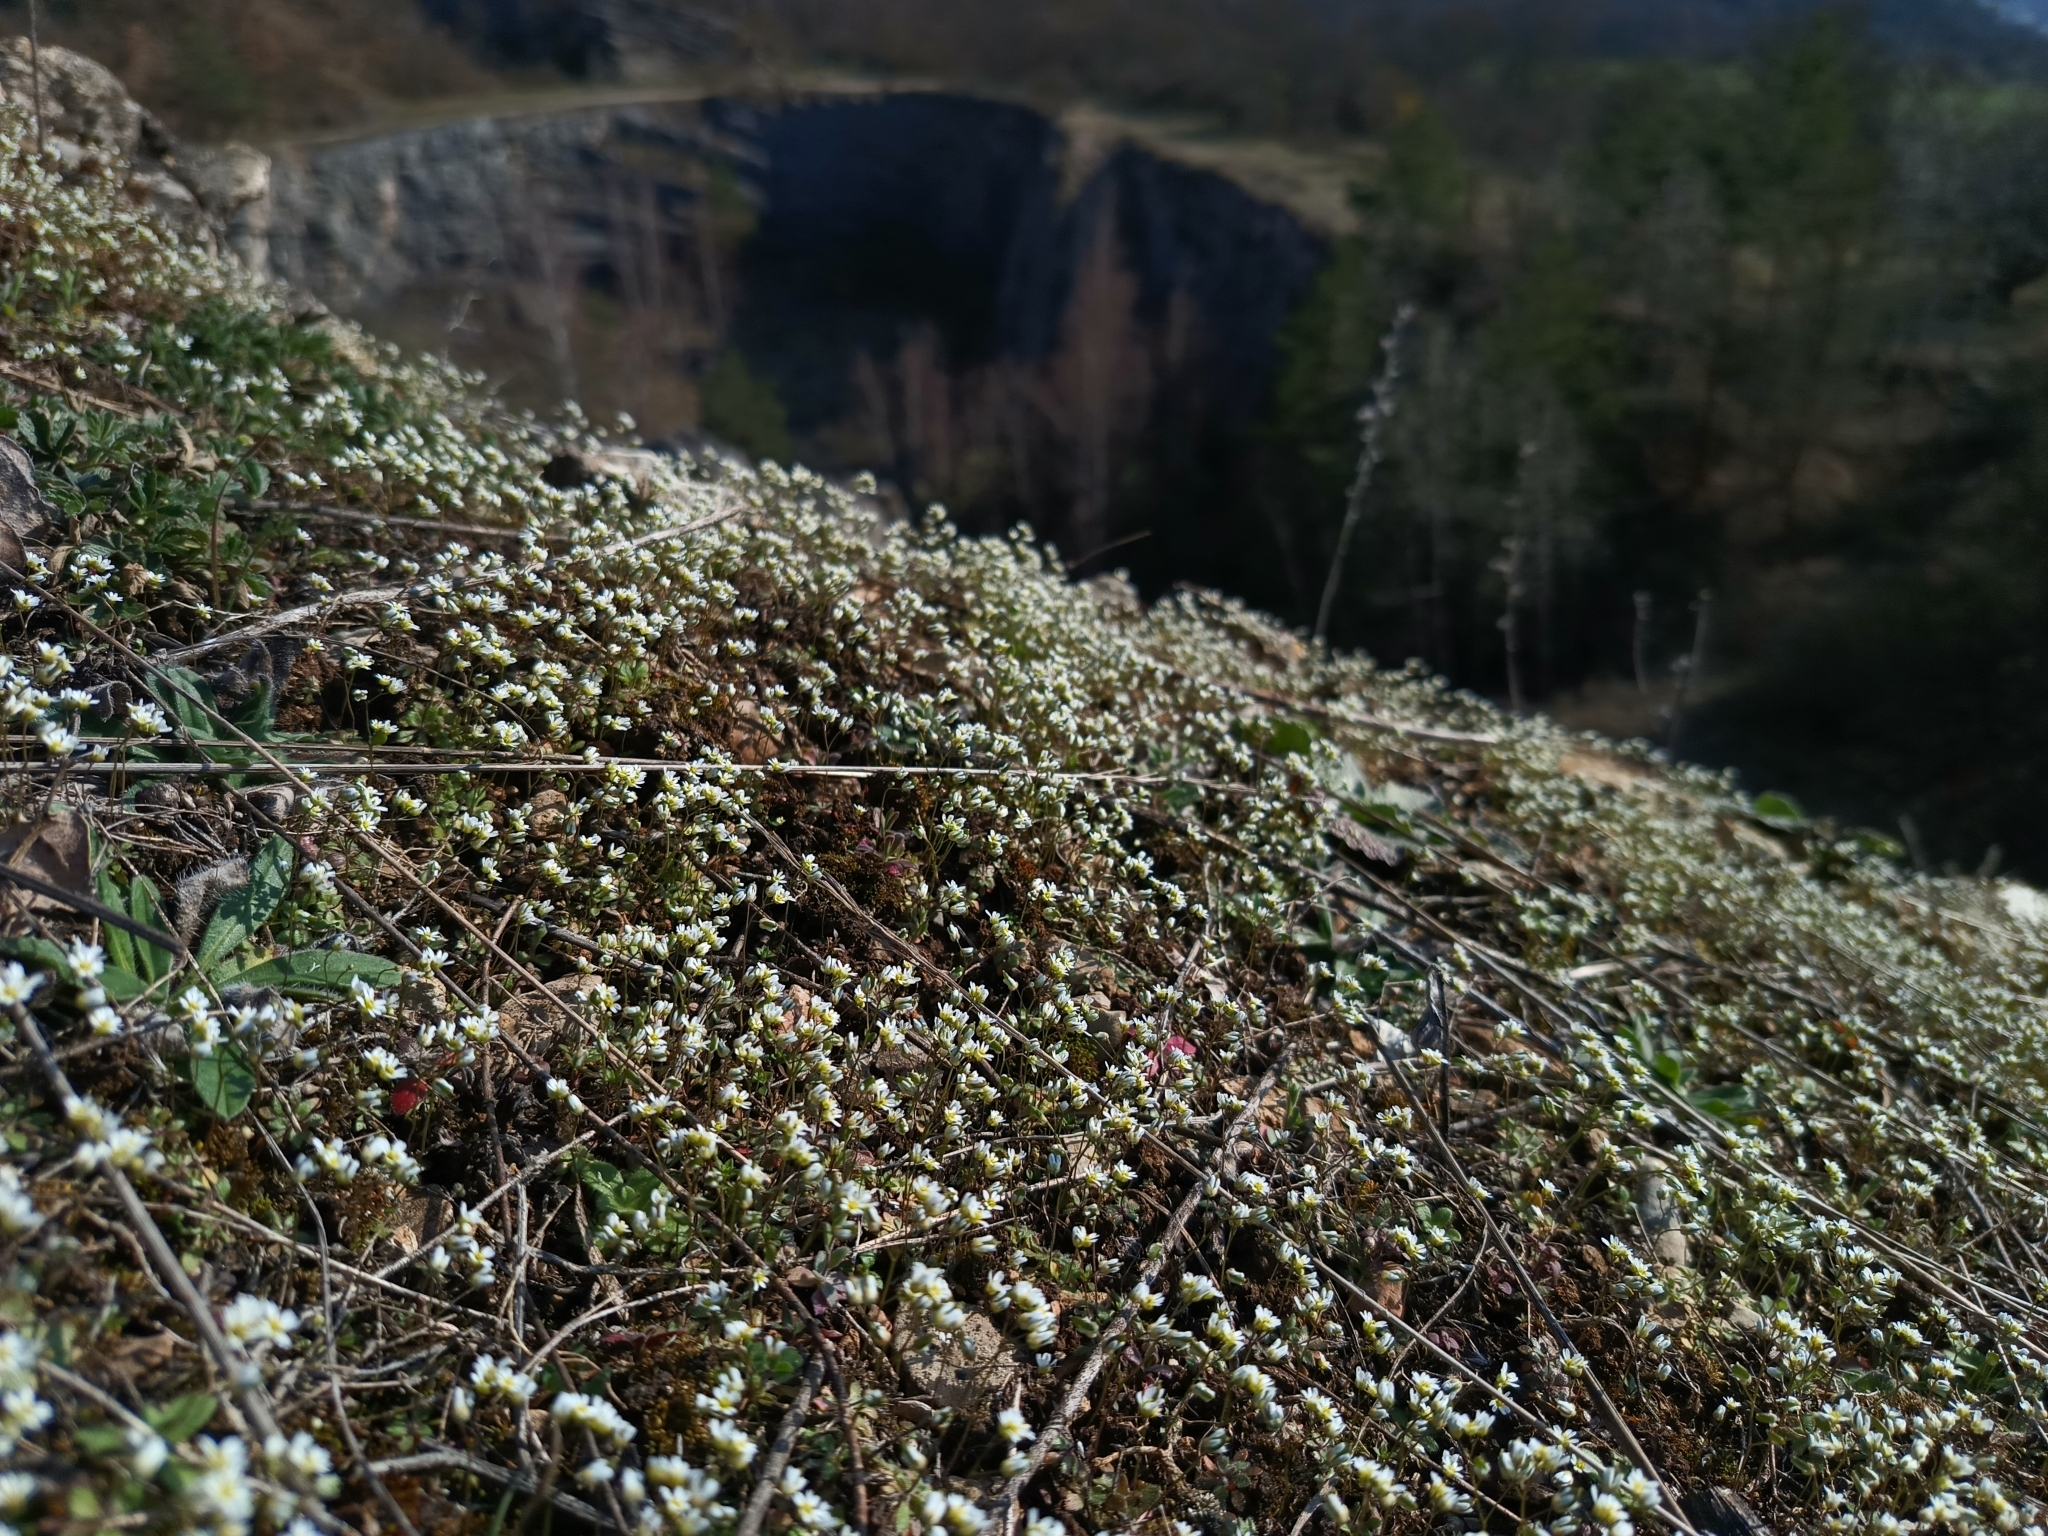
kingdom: Plantae
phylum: Tracheophyta
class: Magnoliopsida
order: Brassicales
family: Brassicaceae
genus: Draba
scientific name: Draba verna
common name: Spring draba
